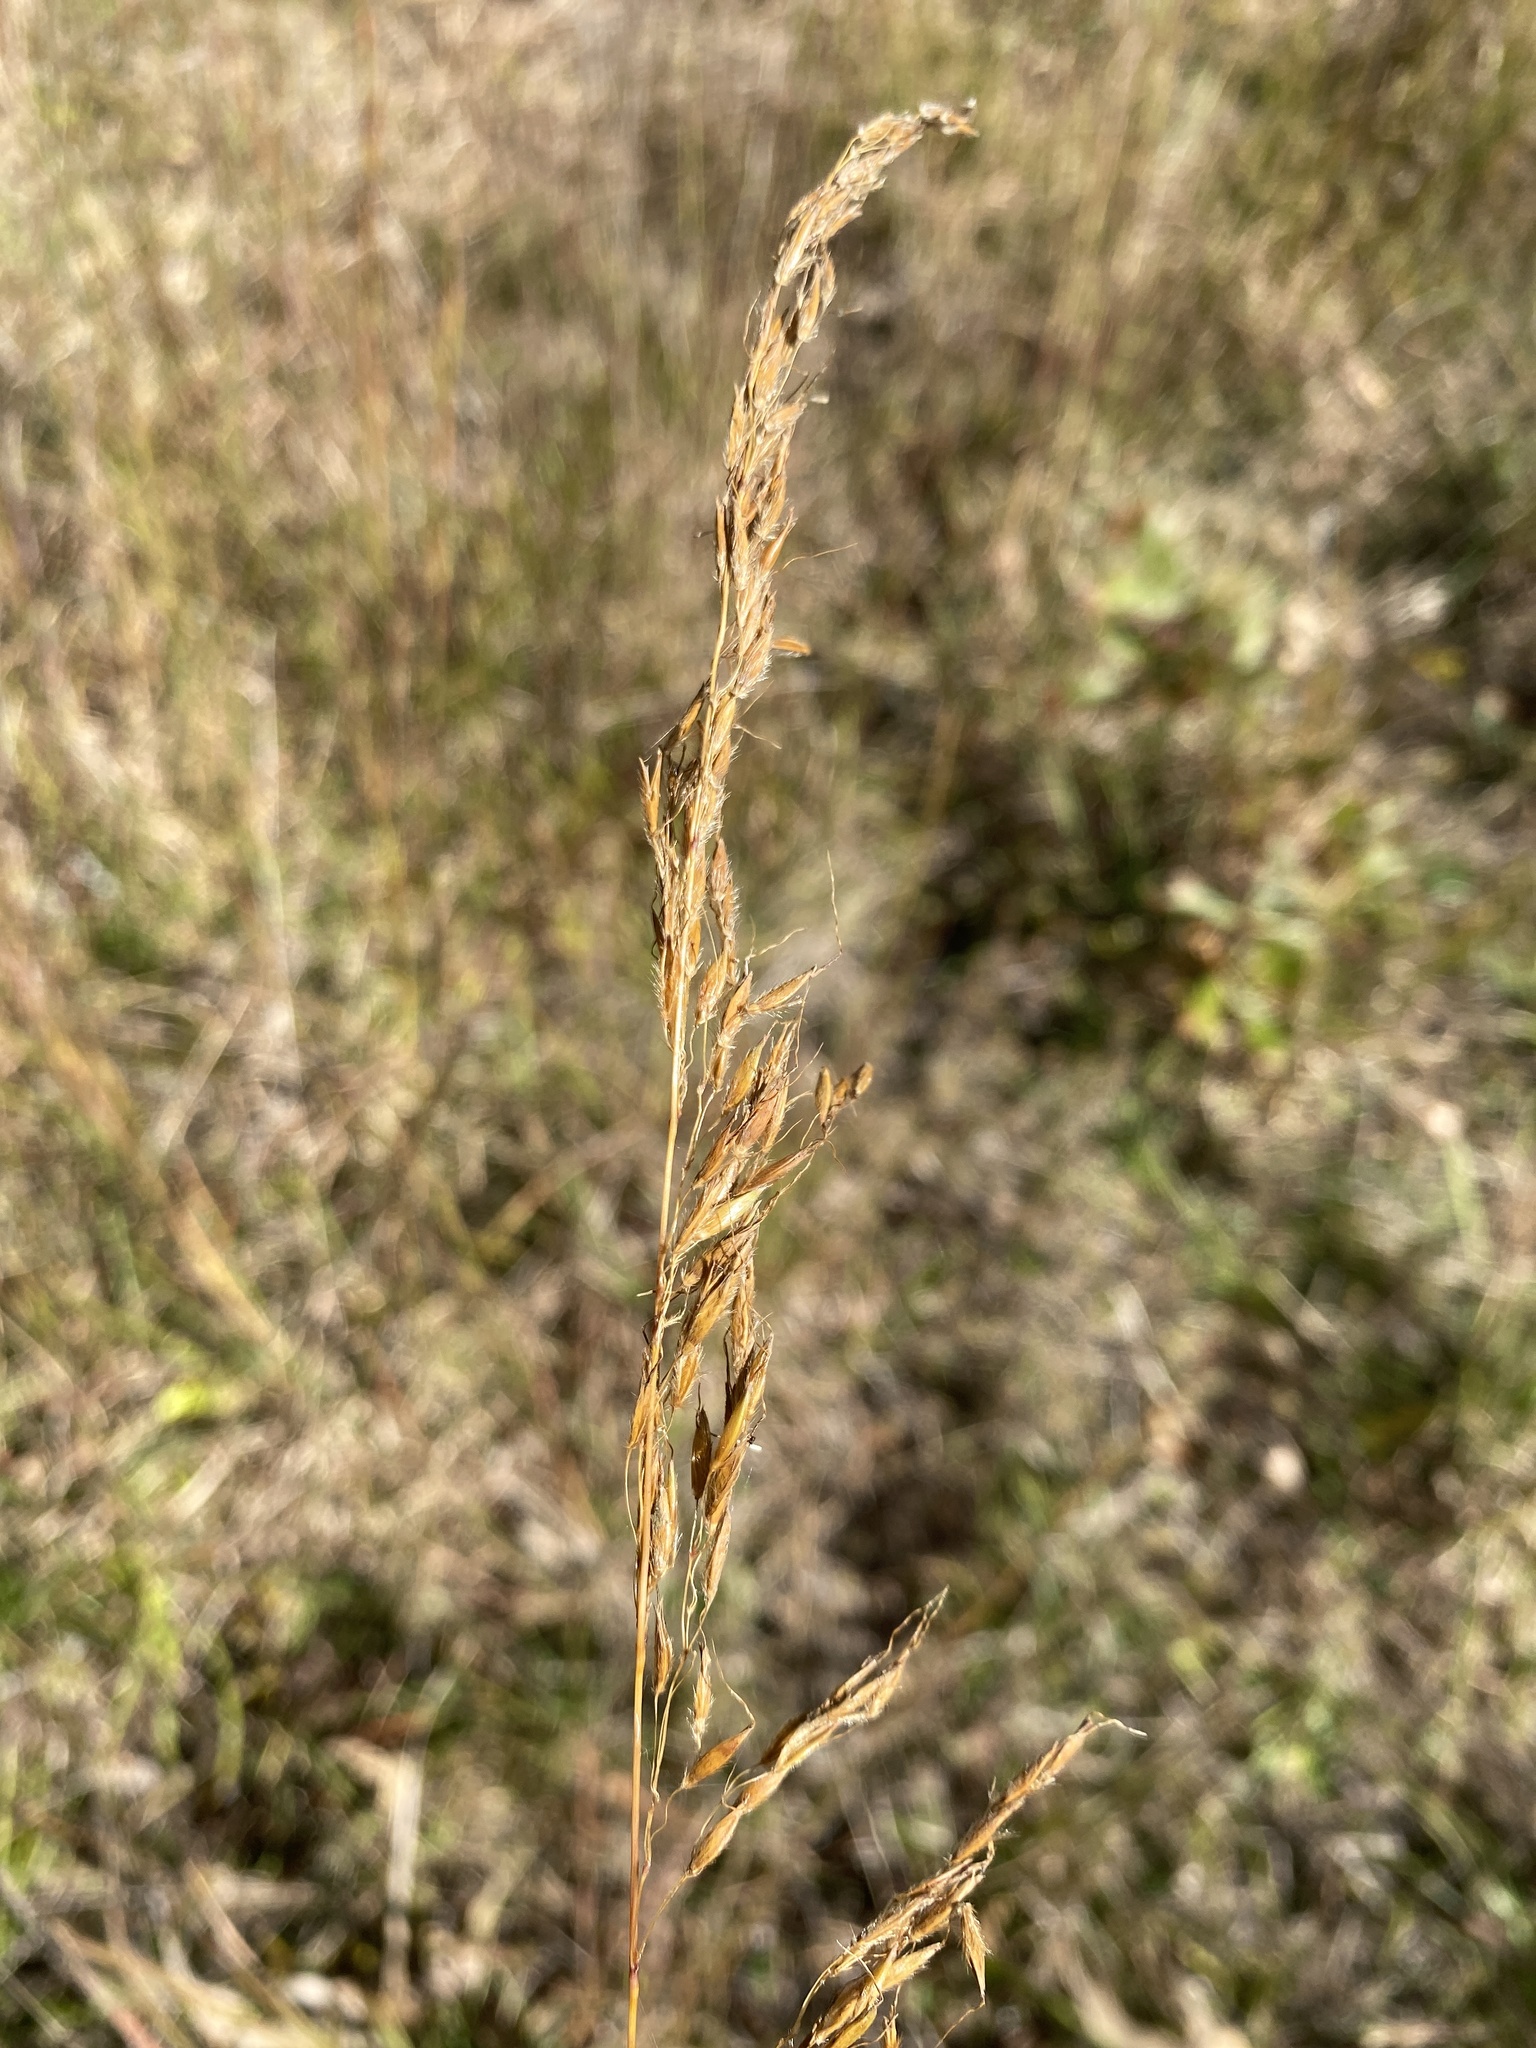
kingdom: Plantae
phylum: Tracheophyta
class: Liliopsida
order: Poales
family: Poaceae
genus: Sorghastrum
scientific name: Sorghastrum nutans
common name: Indian grass
